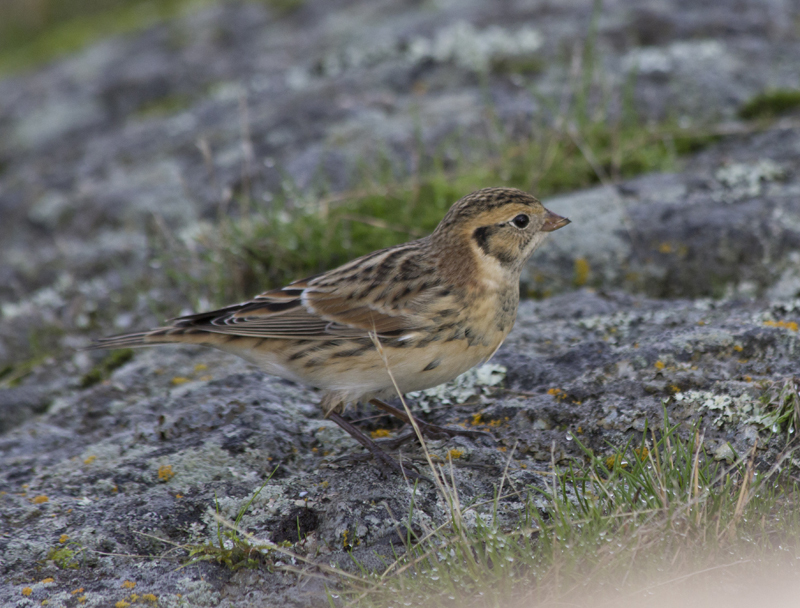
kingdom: Animalia
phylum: Chordata
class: Aves
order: Passeriformes
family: Calcariidae
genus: Calcarius
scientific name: Calcarius lapponicus
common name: Lapland longspur
